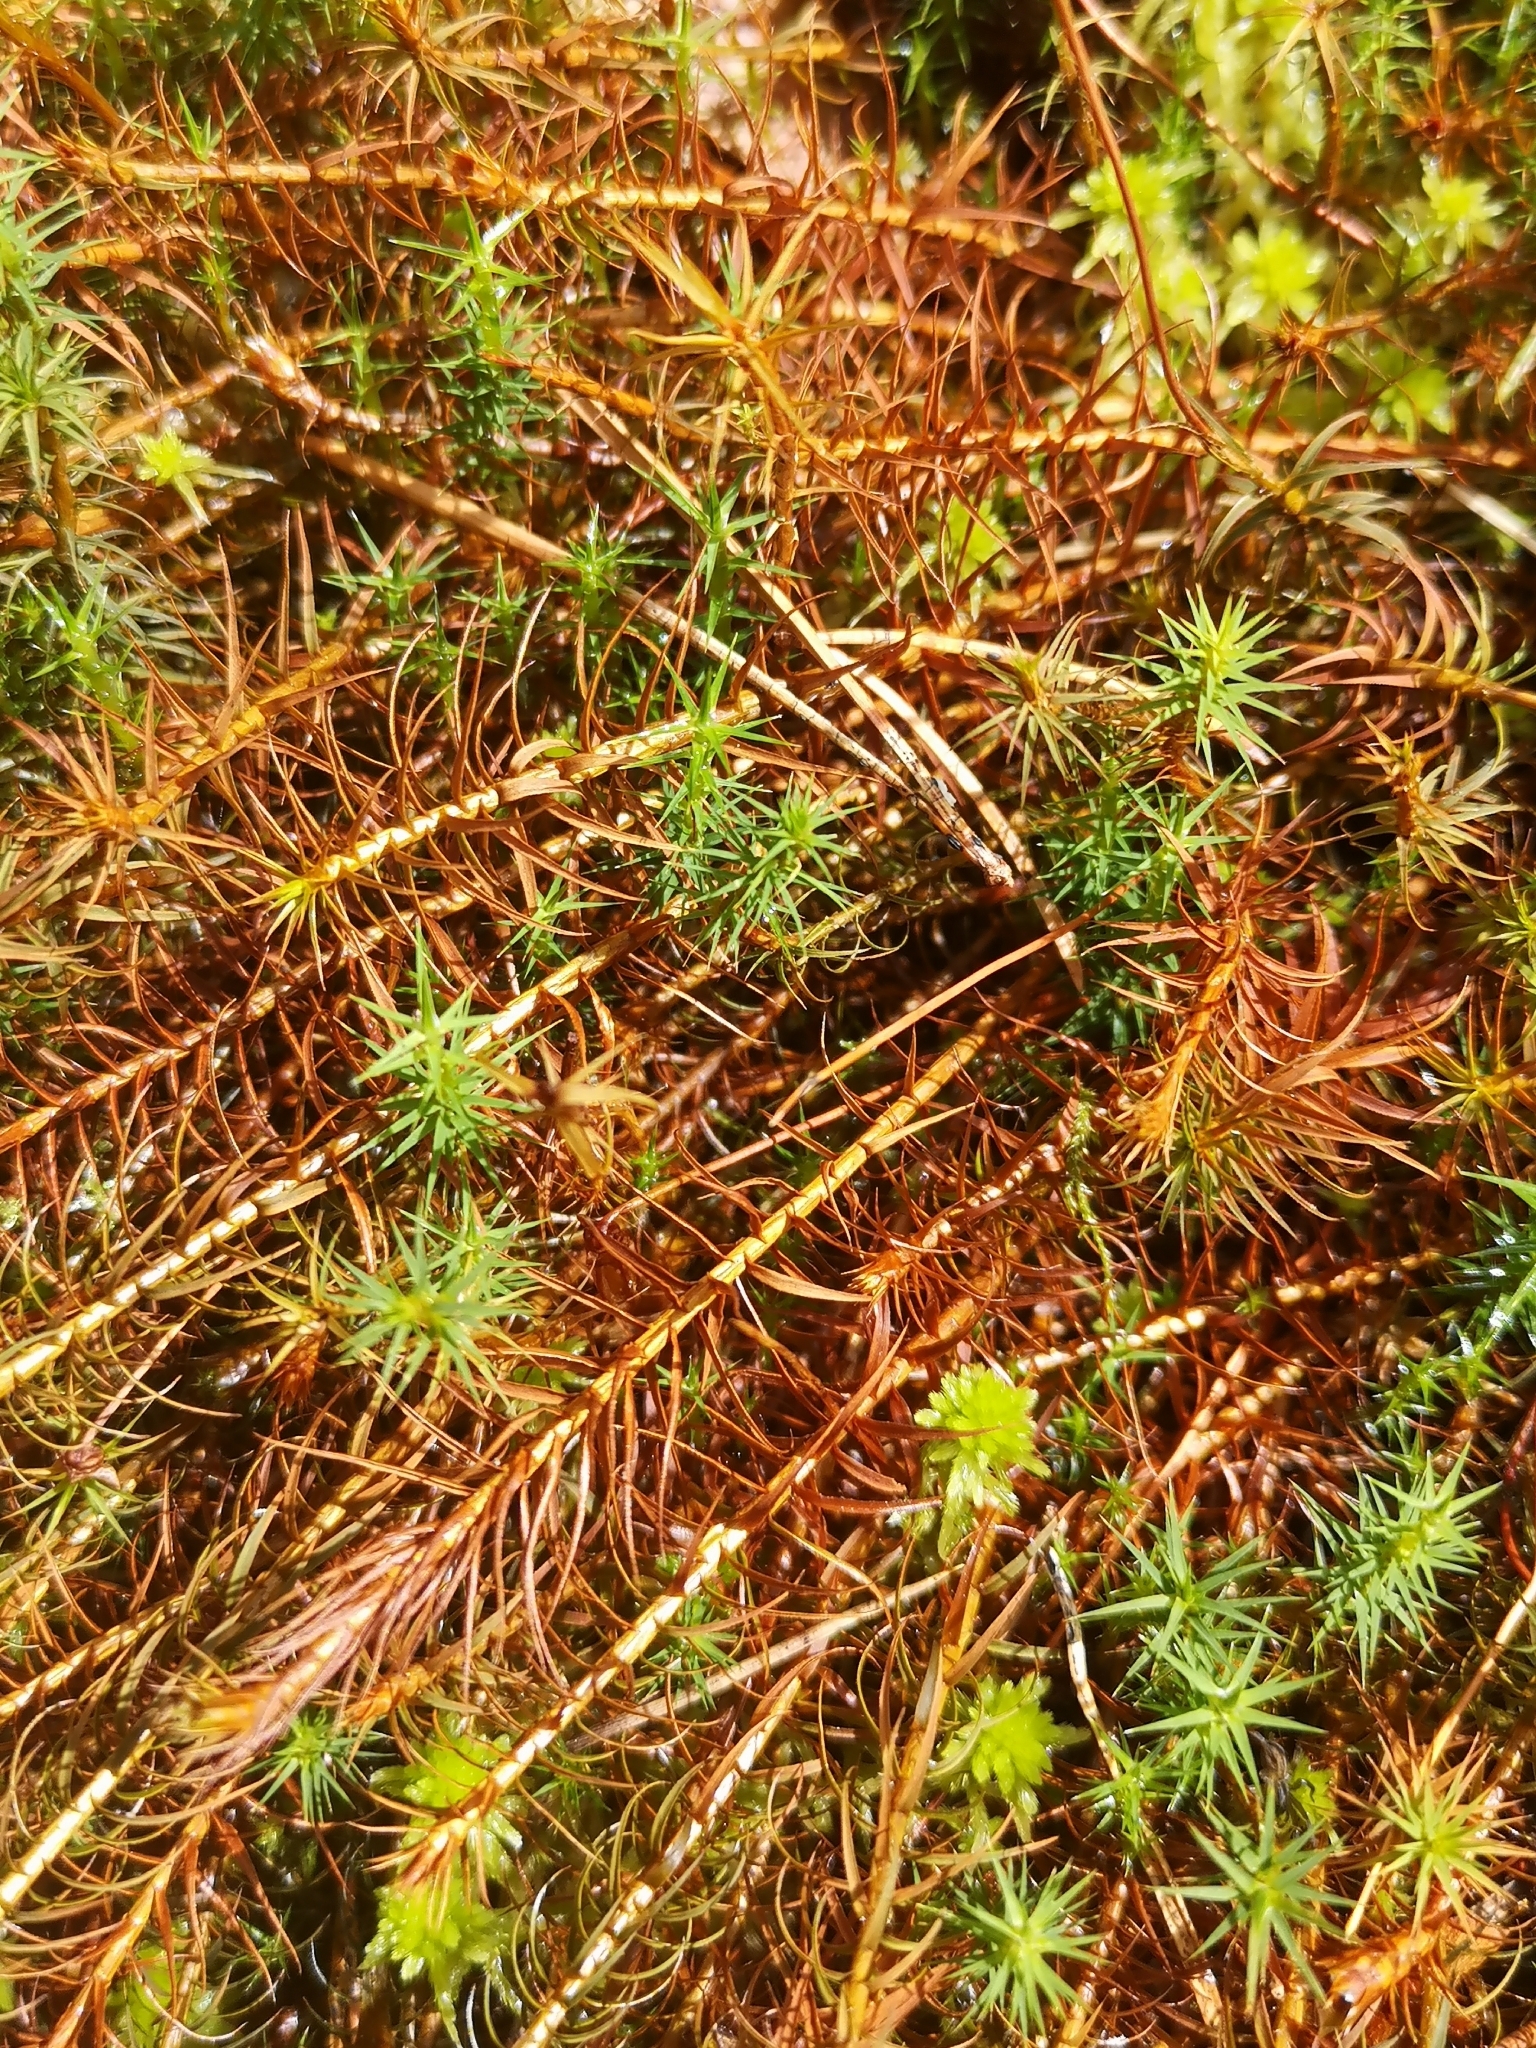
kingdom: Plantae
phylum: Bryophyta
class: Polytrichopsida
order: Polytrichales
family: Polytrichaceae
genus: Polytrichum
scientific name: Polytrichum commune
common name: Common haircap
